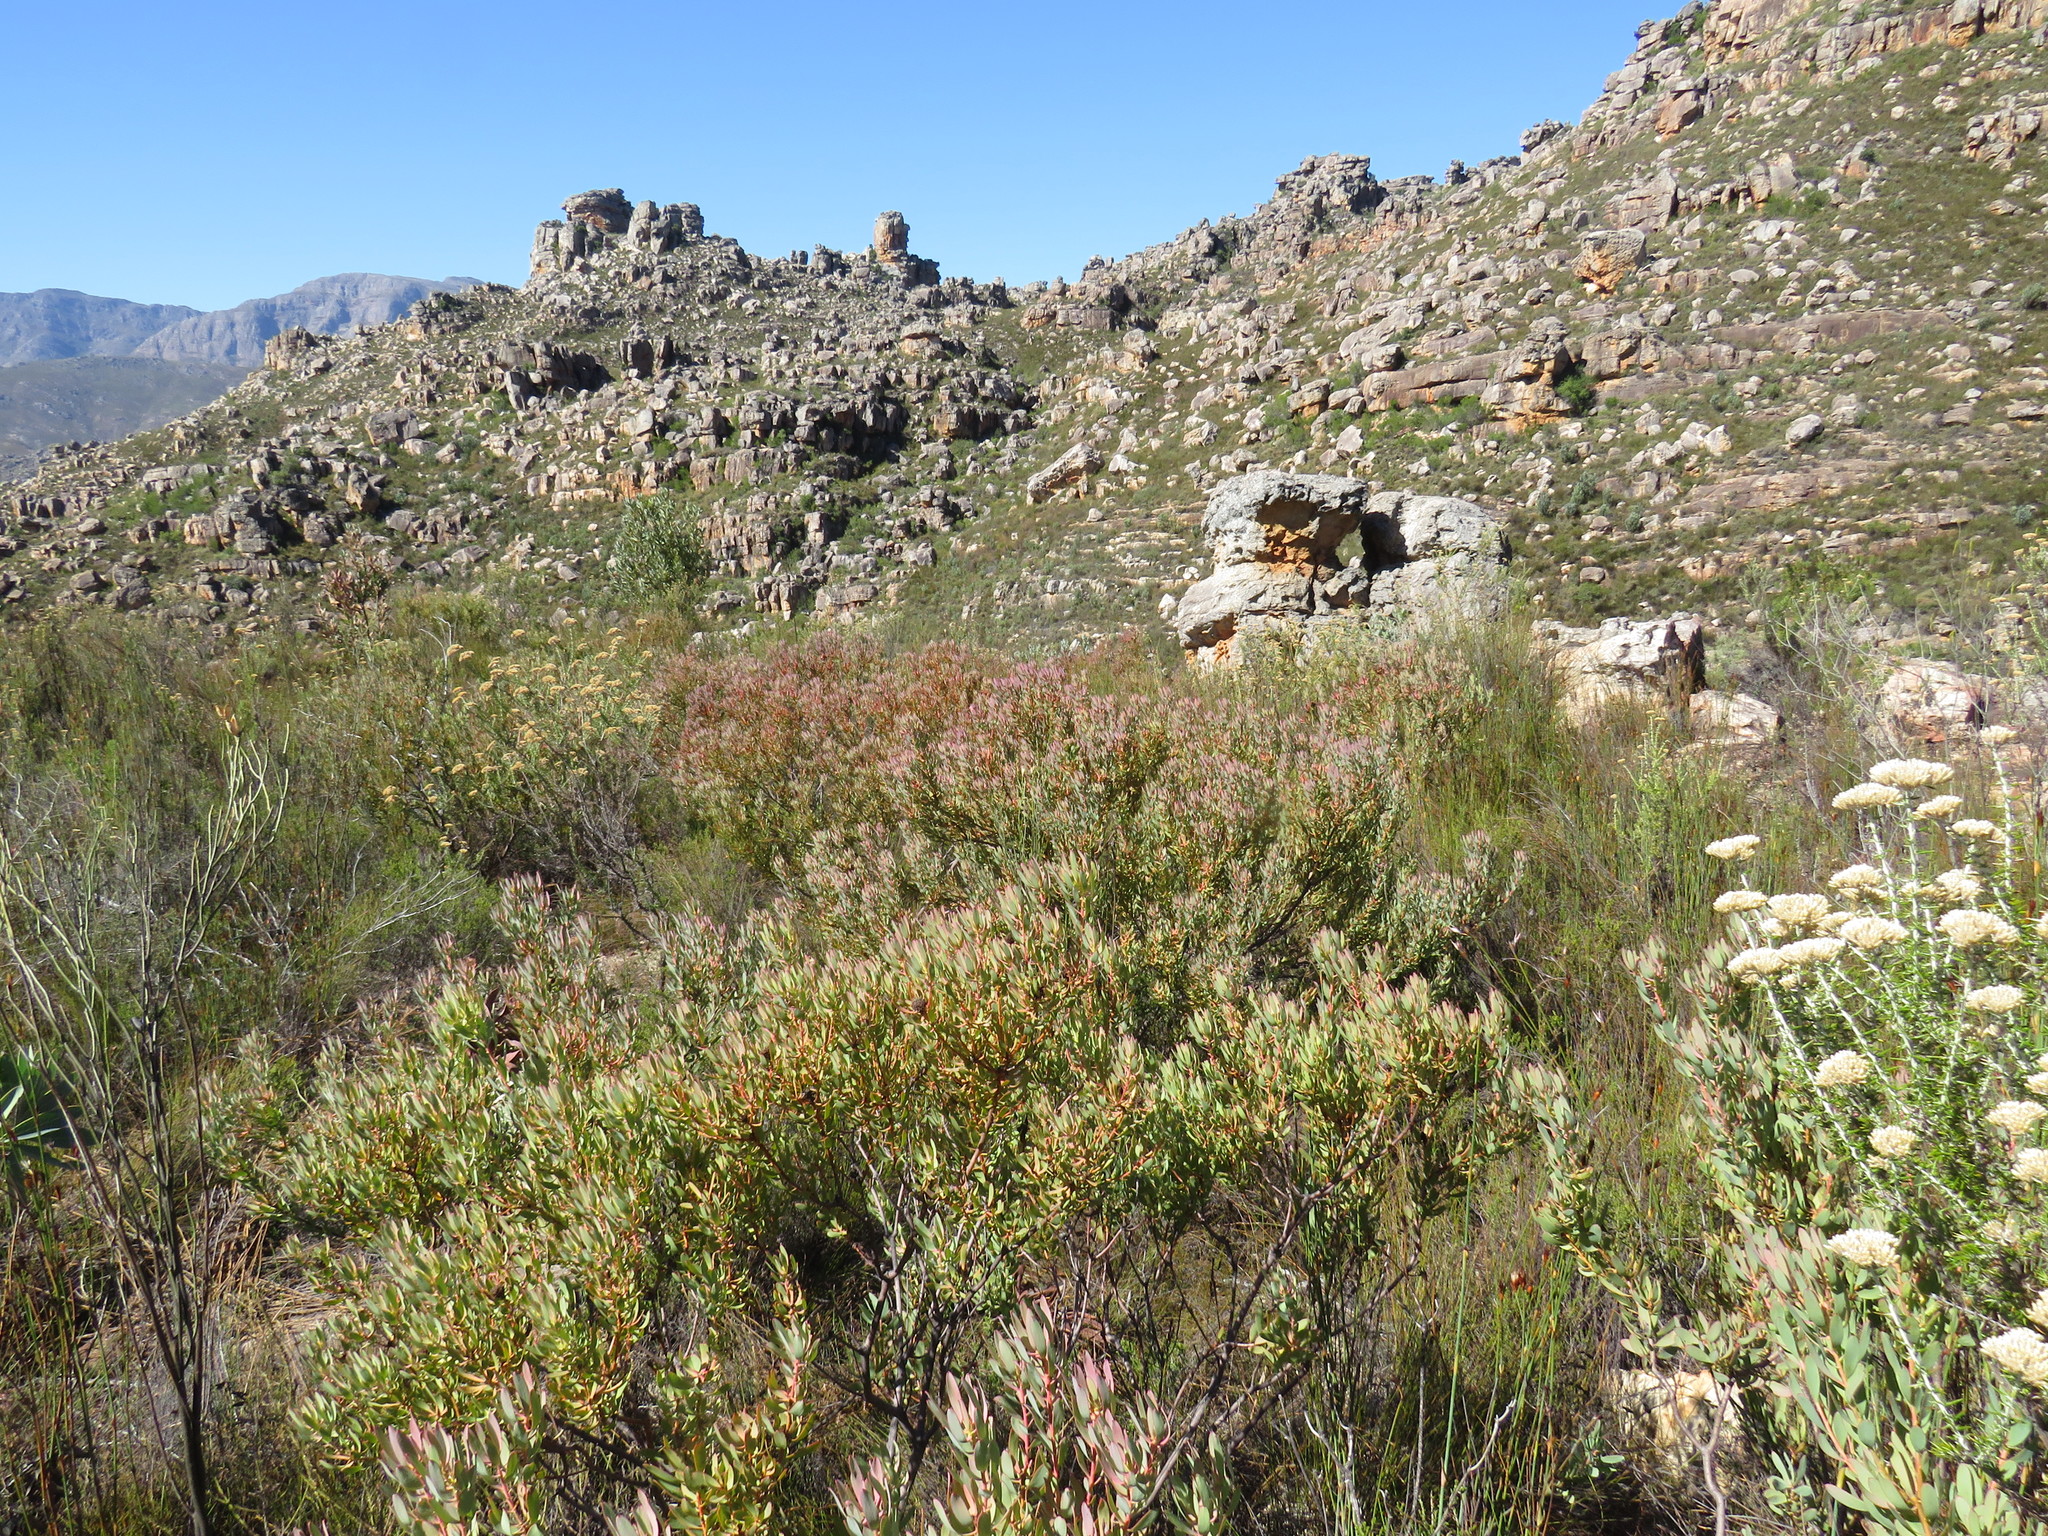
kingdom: Plantae
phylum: Tracheophyta
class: Magnoliopsida
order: Proteales
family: Proteaceae
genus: Leucadendron
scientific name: Leucadendron glaberrimum
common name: Common oily conebush
